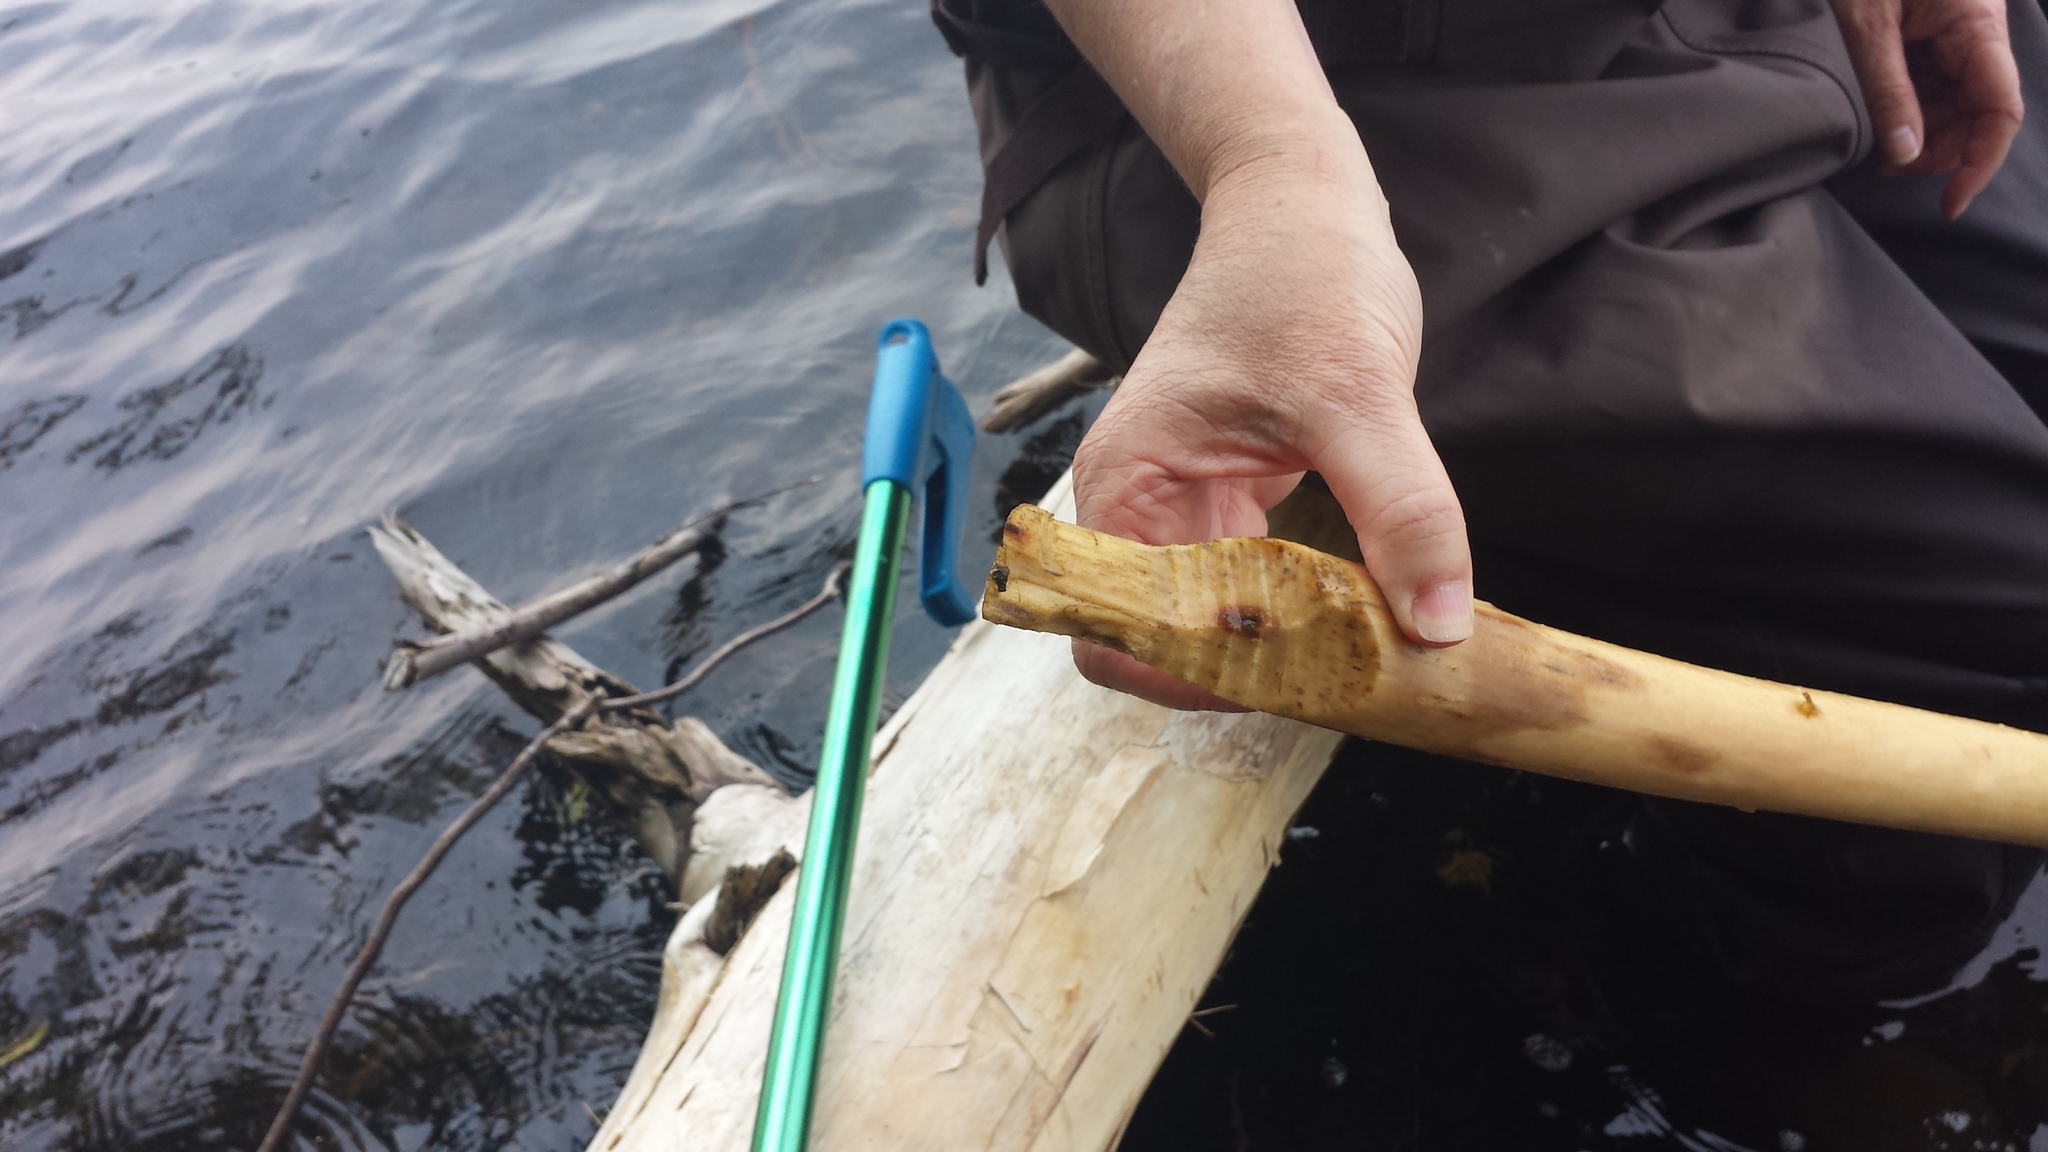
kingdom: Animalia
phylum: Chordata
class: Mammalia
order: Rodentia
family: Castoridae
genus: Castor
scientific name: Castor canadensis
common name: American beaver
